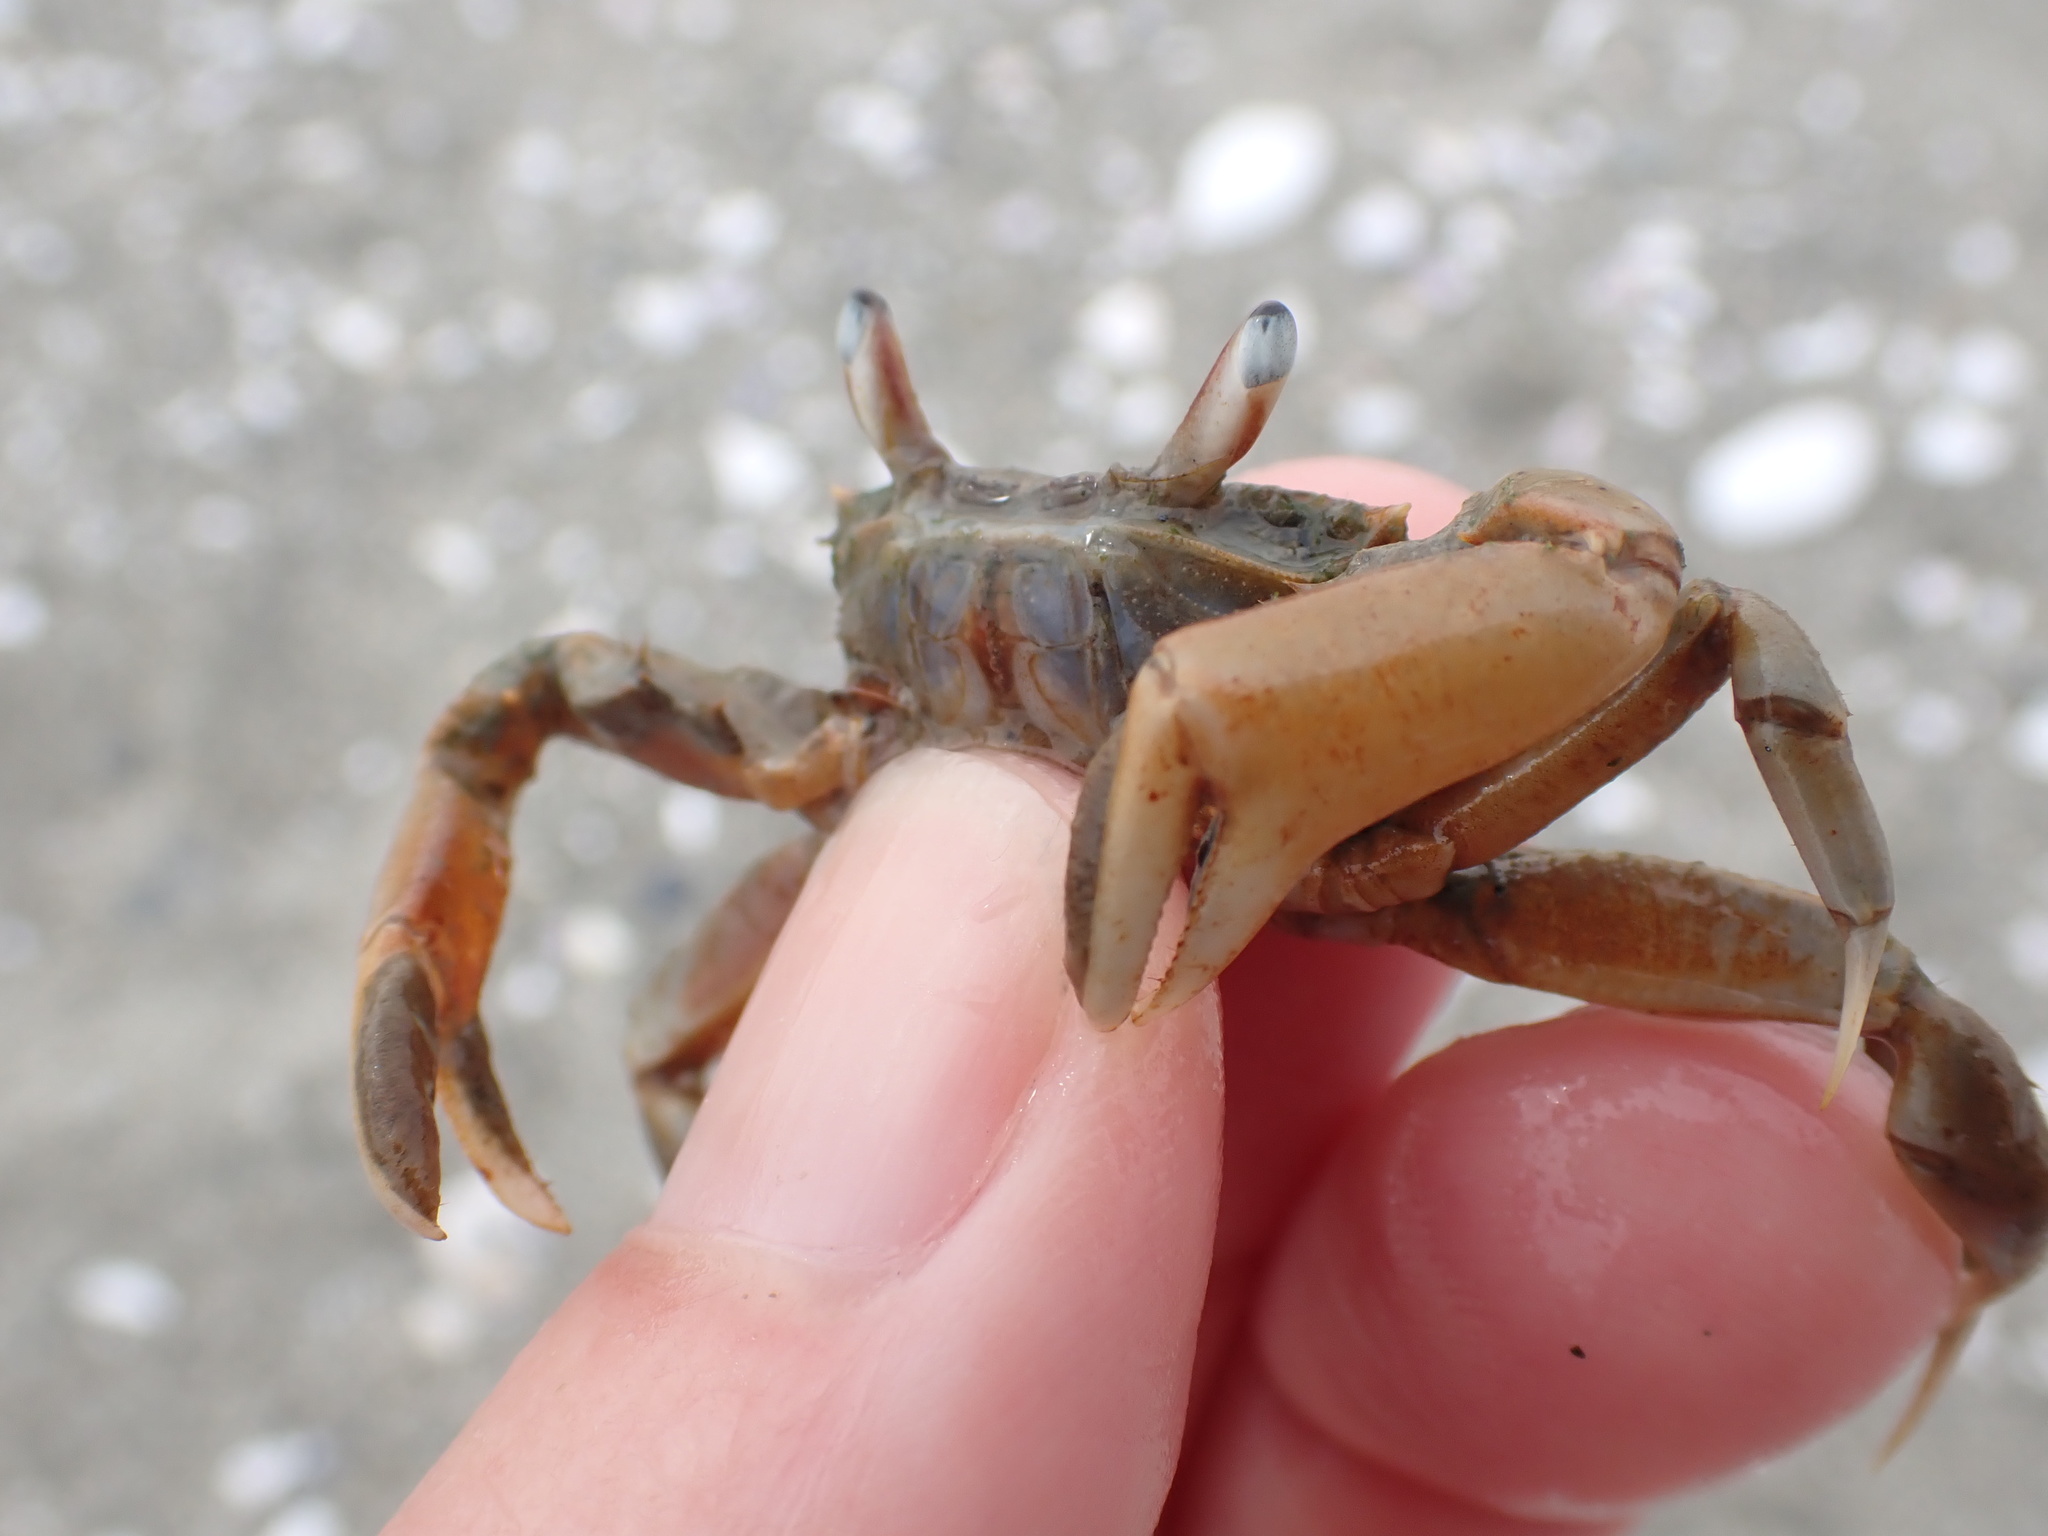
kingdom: Animalia
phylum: Arthropoda
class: Malacostraca
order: Decapoda
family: Macrophthalmidae
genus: Hemiplax
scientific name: Hemiplax hirtipes
